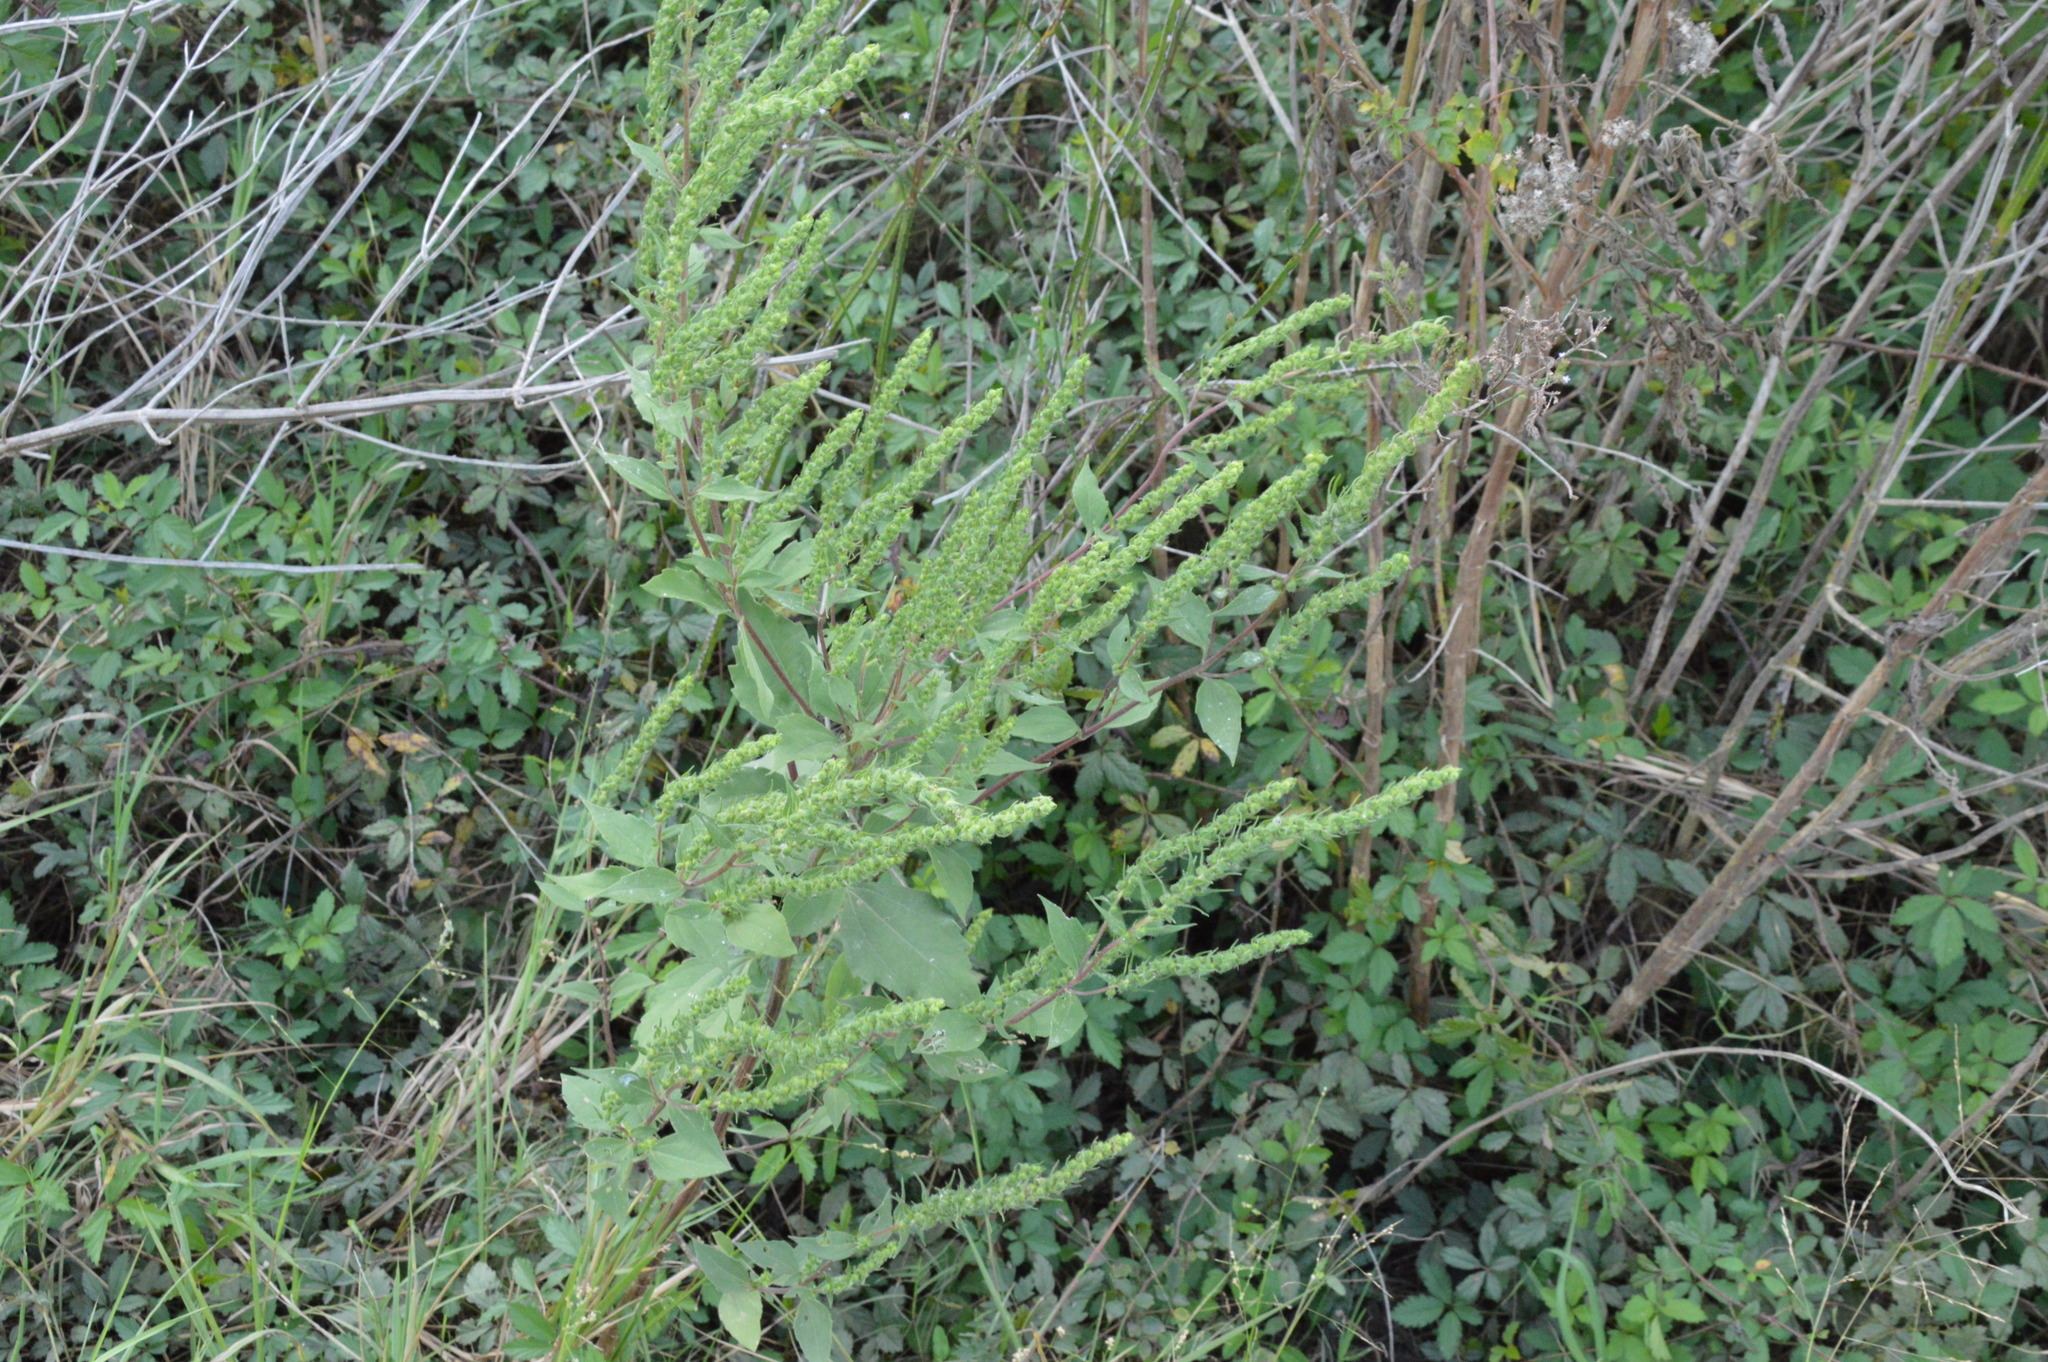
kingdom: Plantae
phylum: Tracheophyta
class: Magnoliopsida
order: Asterales
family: Asteraceae
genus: Iva
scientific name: Iva annua
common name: Marsh-elder
